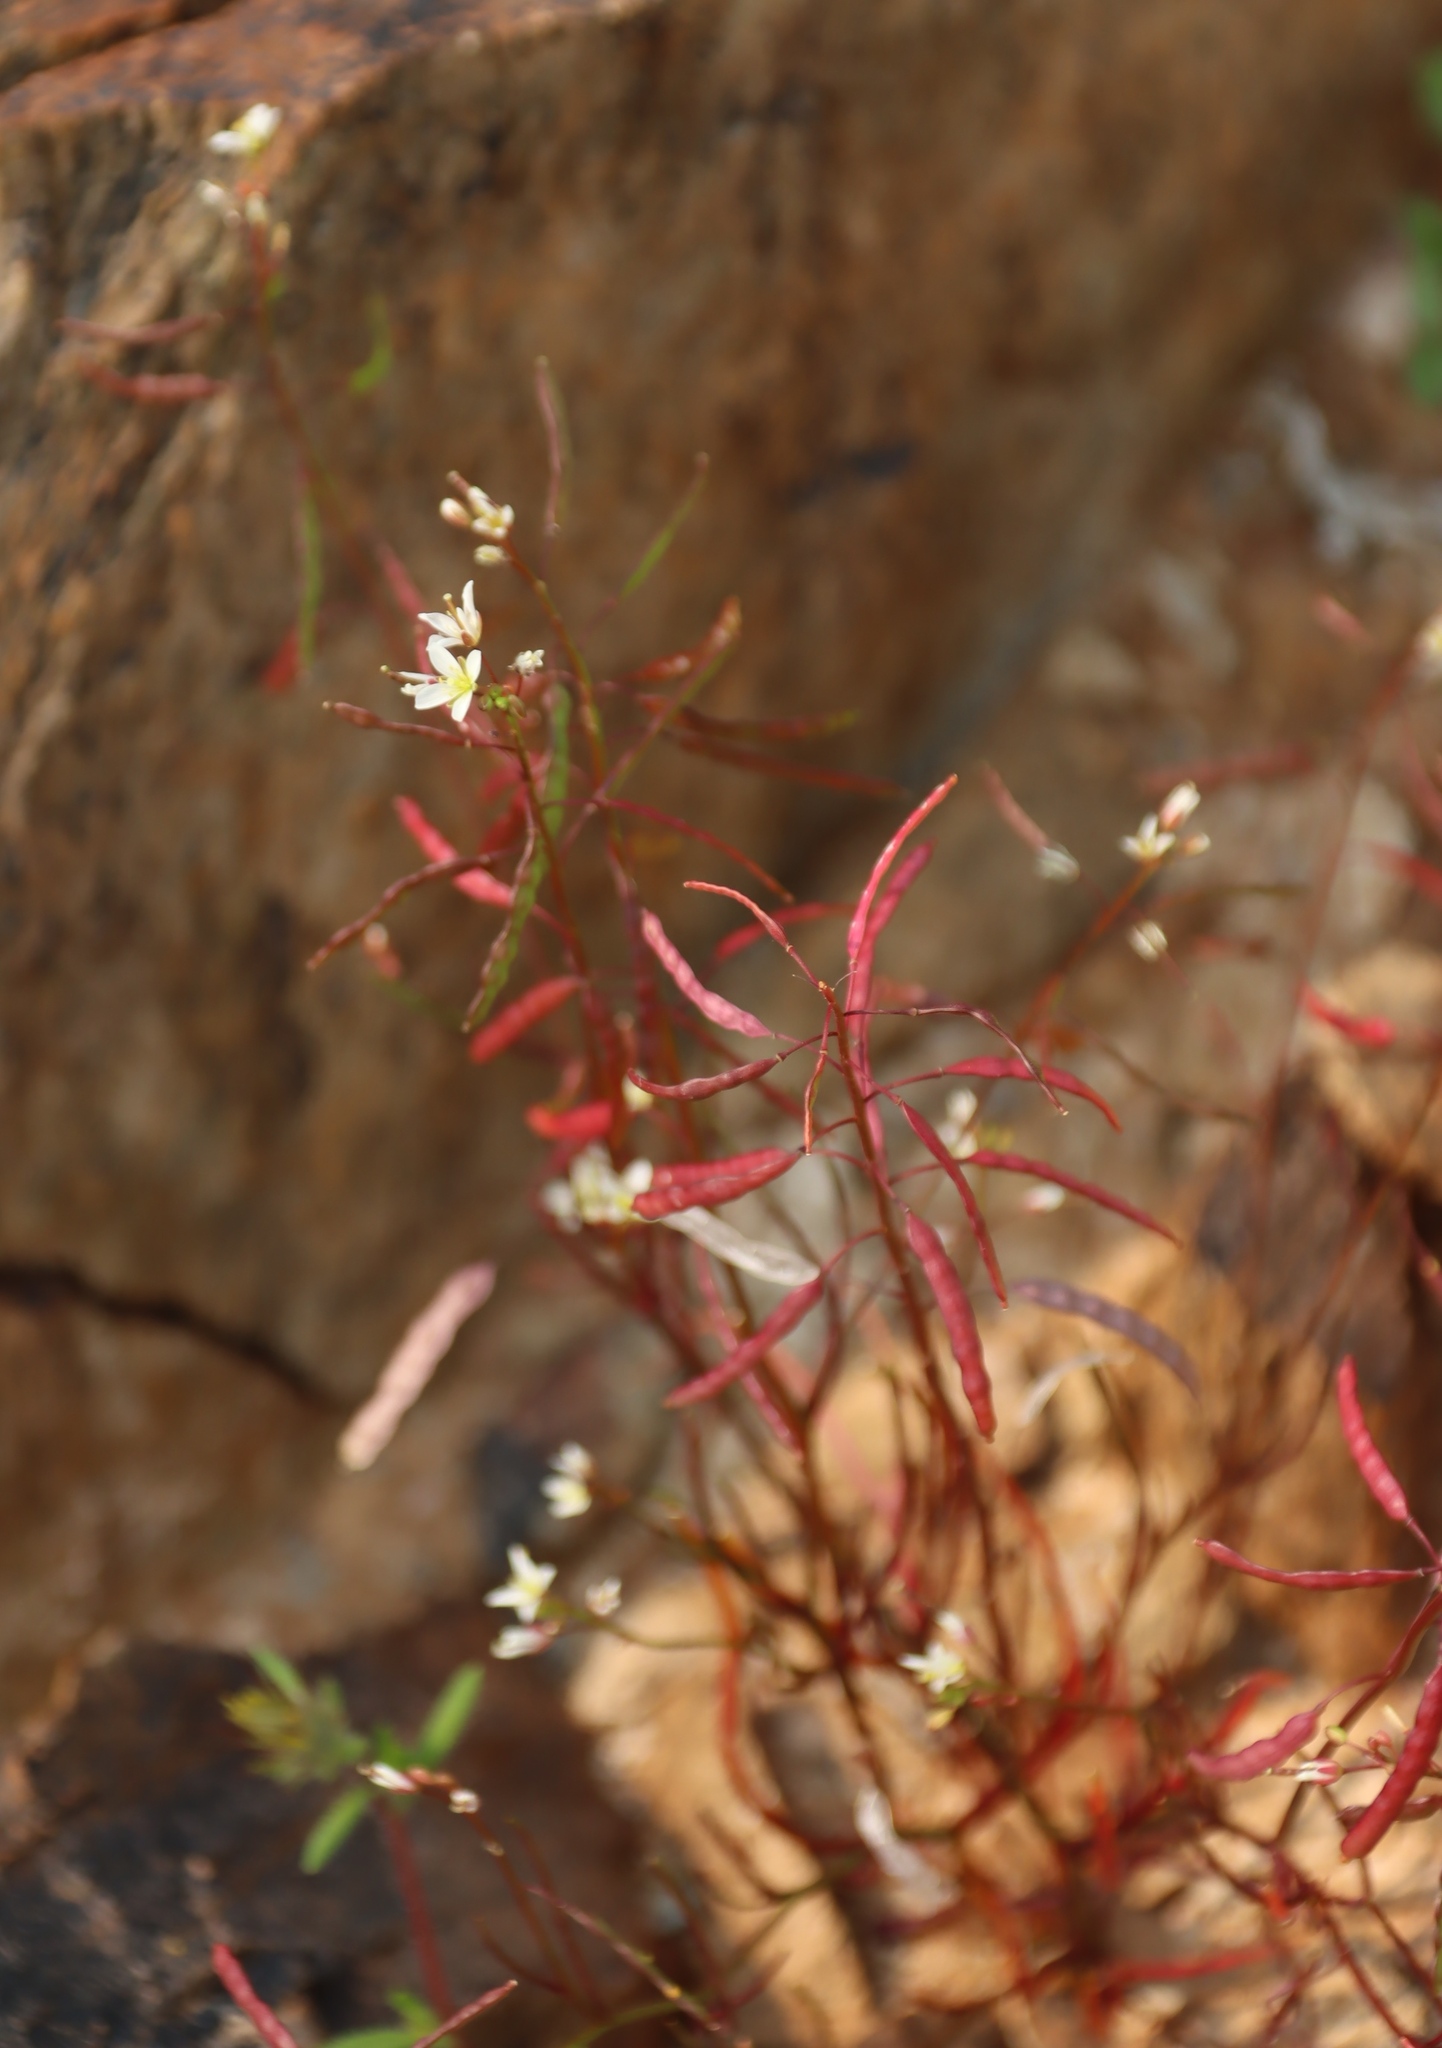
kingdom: Plantae
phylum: Tracheophyta
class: Magnoliopsida
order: Brassicales
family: Brassicaceae
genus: Heliophila
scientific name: Heliophila variabilis
